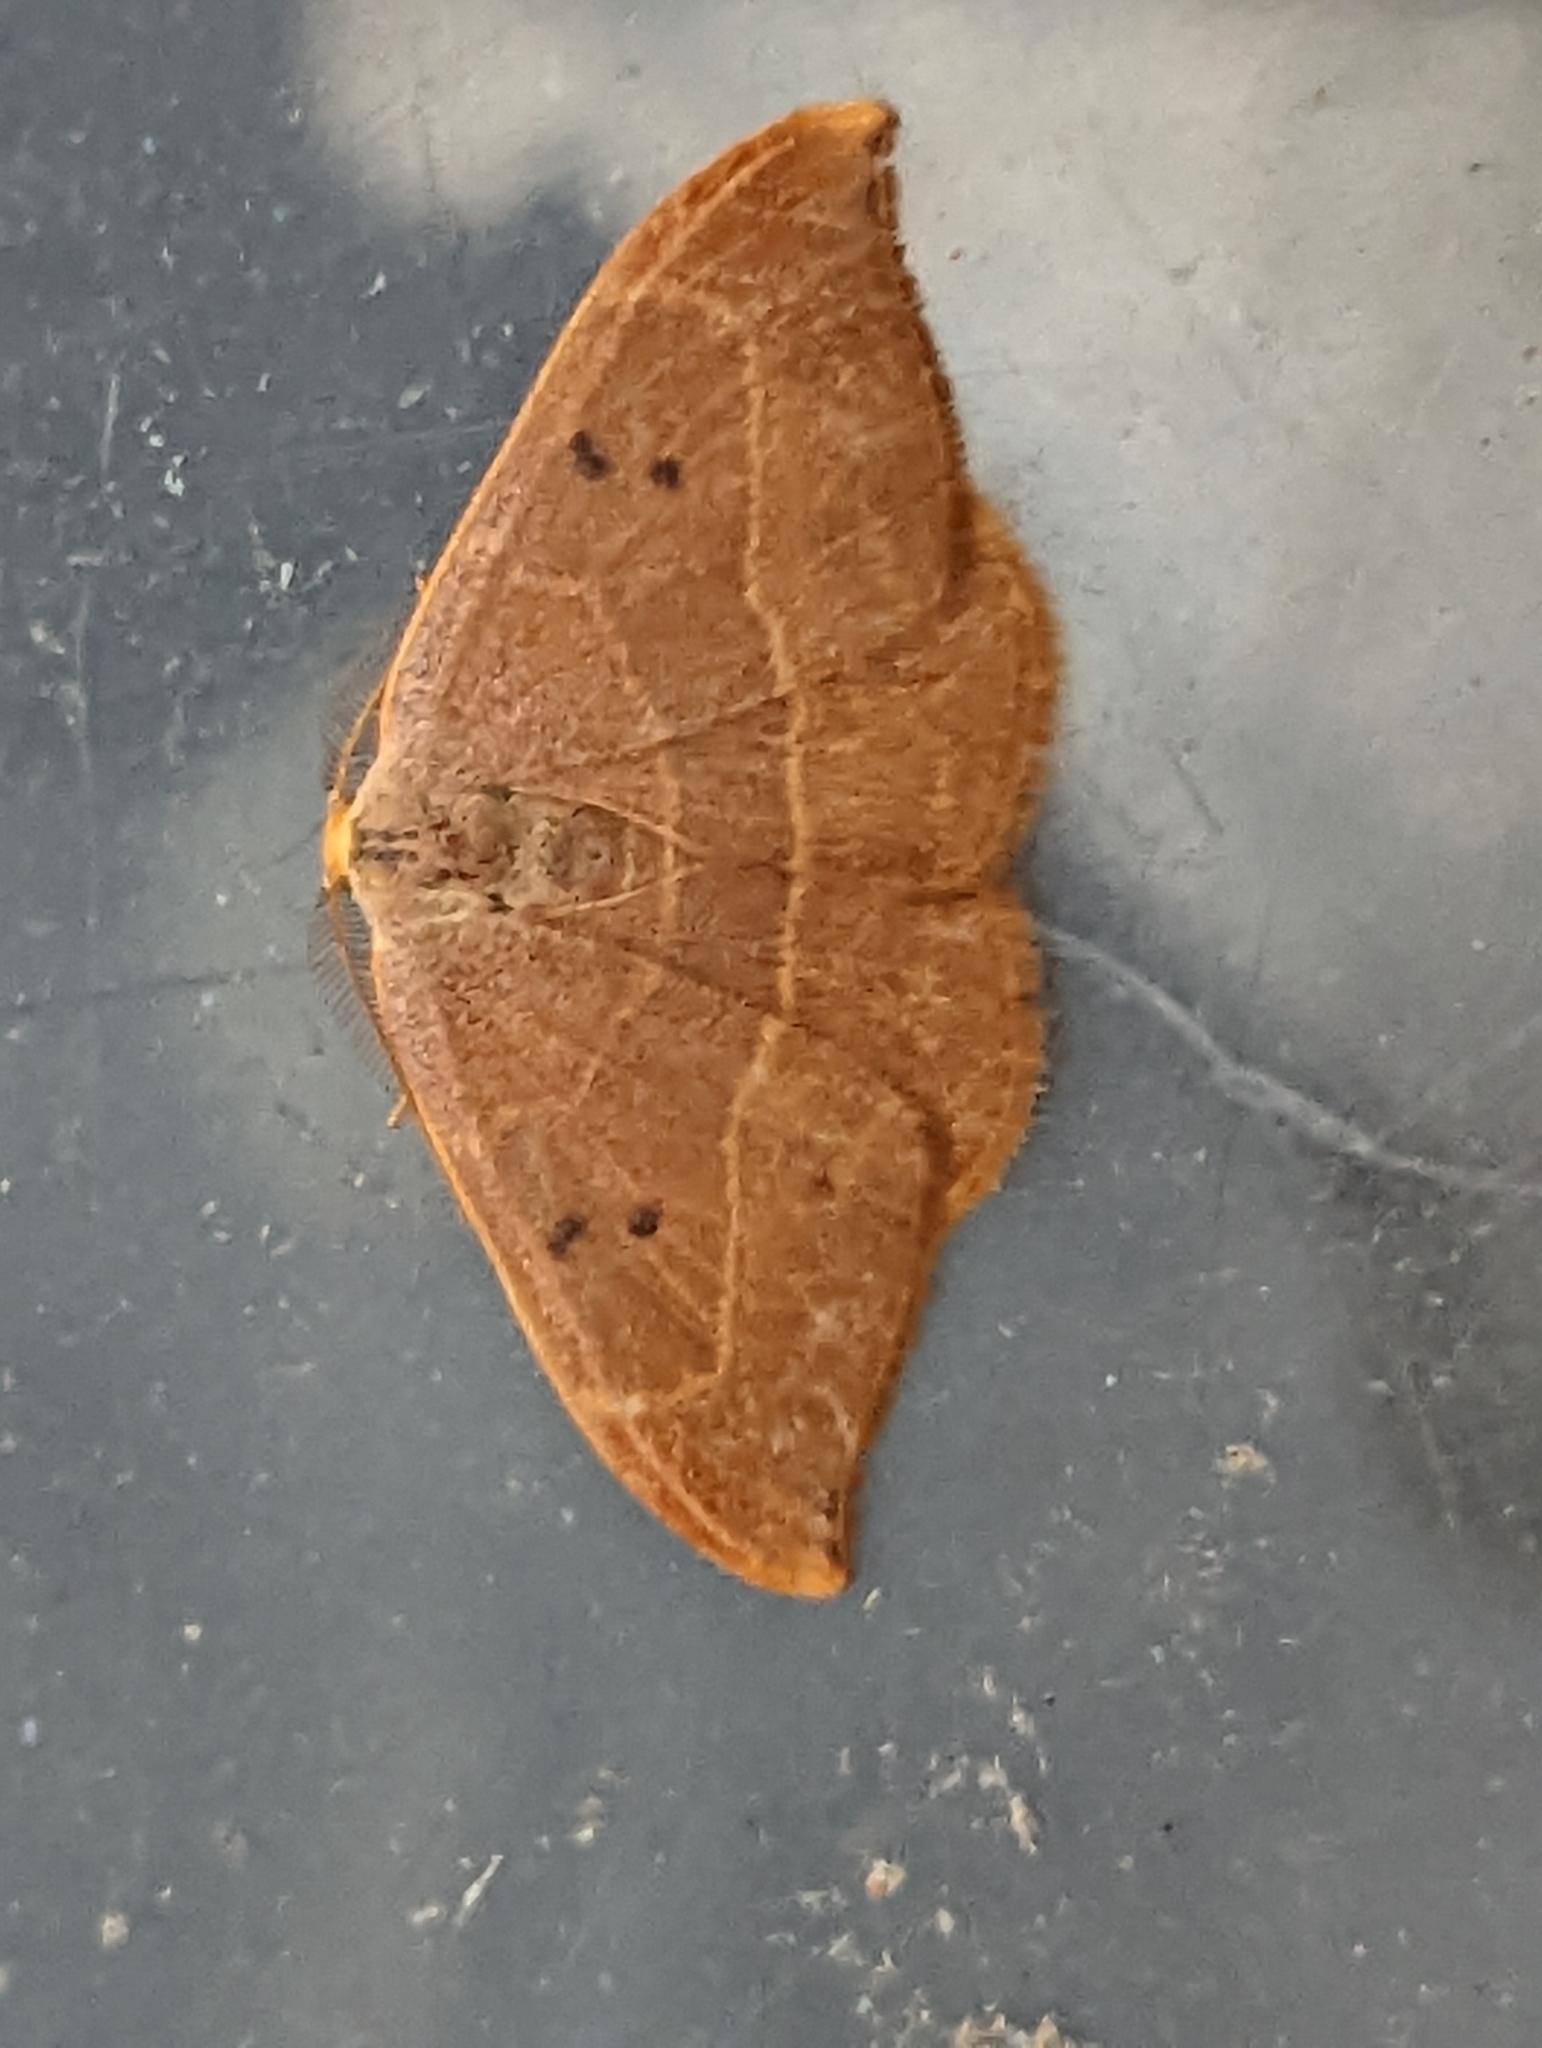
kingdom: Animalia
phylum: Arthropoda
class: Insecta
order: Lepidoptera
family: Drepanidae
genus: Watsonalla
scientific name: Watsonalla binaria
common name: Oak hook-tip
